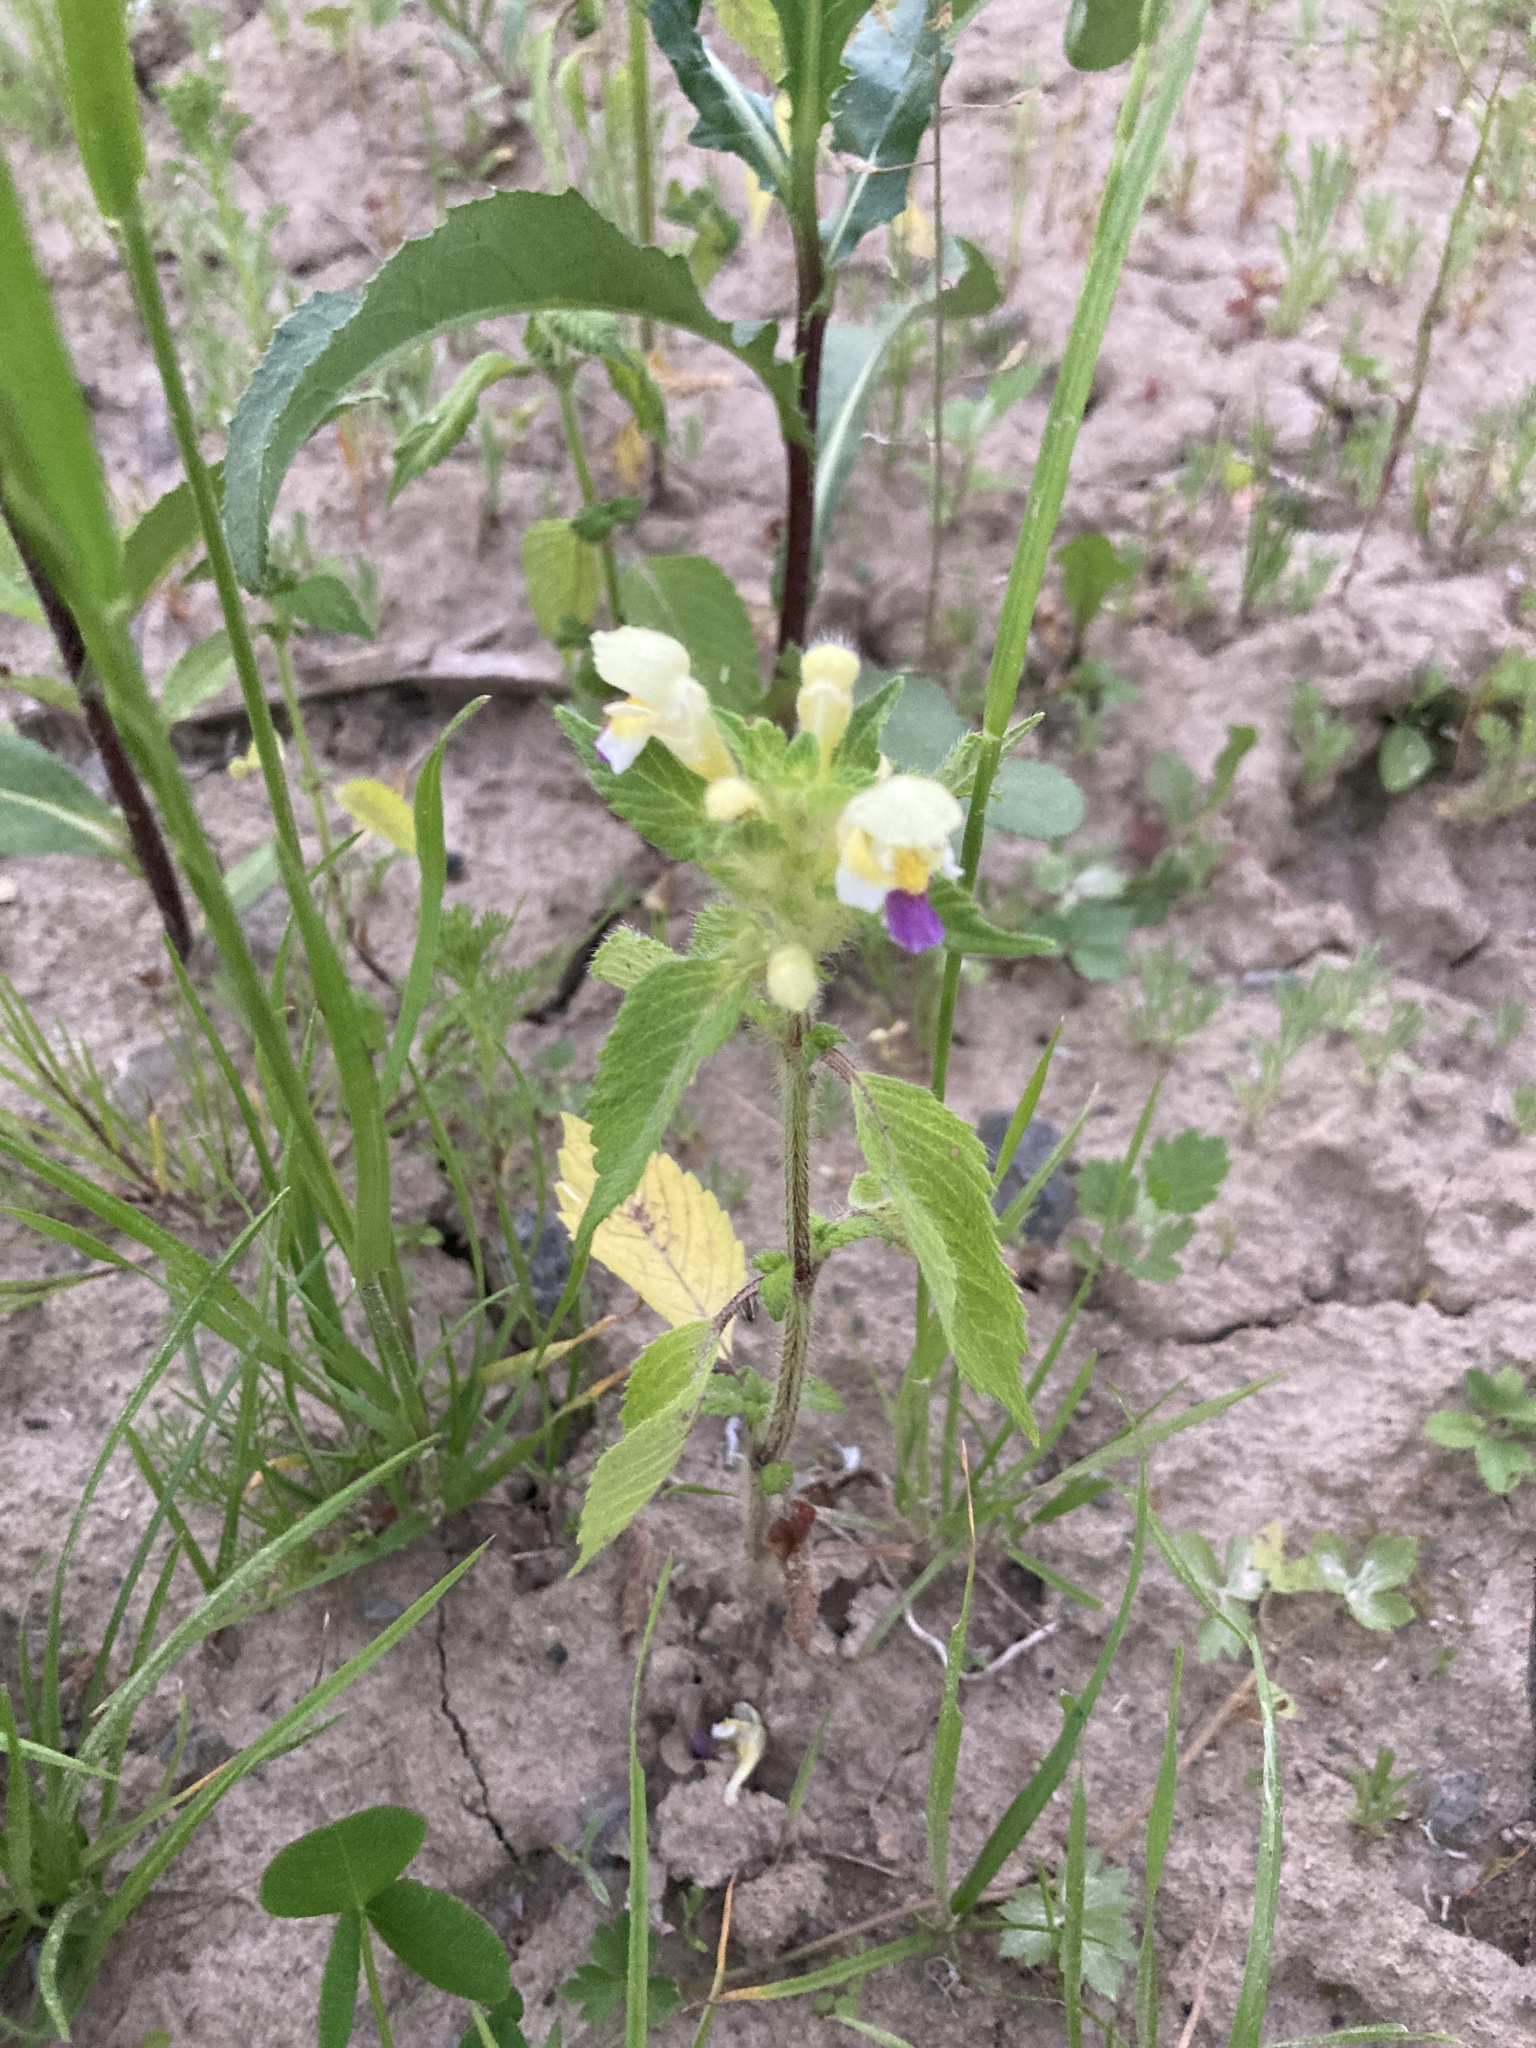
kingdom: Plantae
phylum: Tracheophyta
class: Magnoliopsida
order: Lamiales
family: Lamiaceae
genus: Galeopsis
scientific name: Galeopsis speciosa
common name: Large-flowered hemp-nettle
